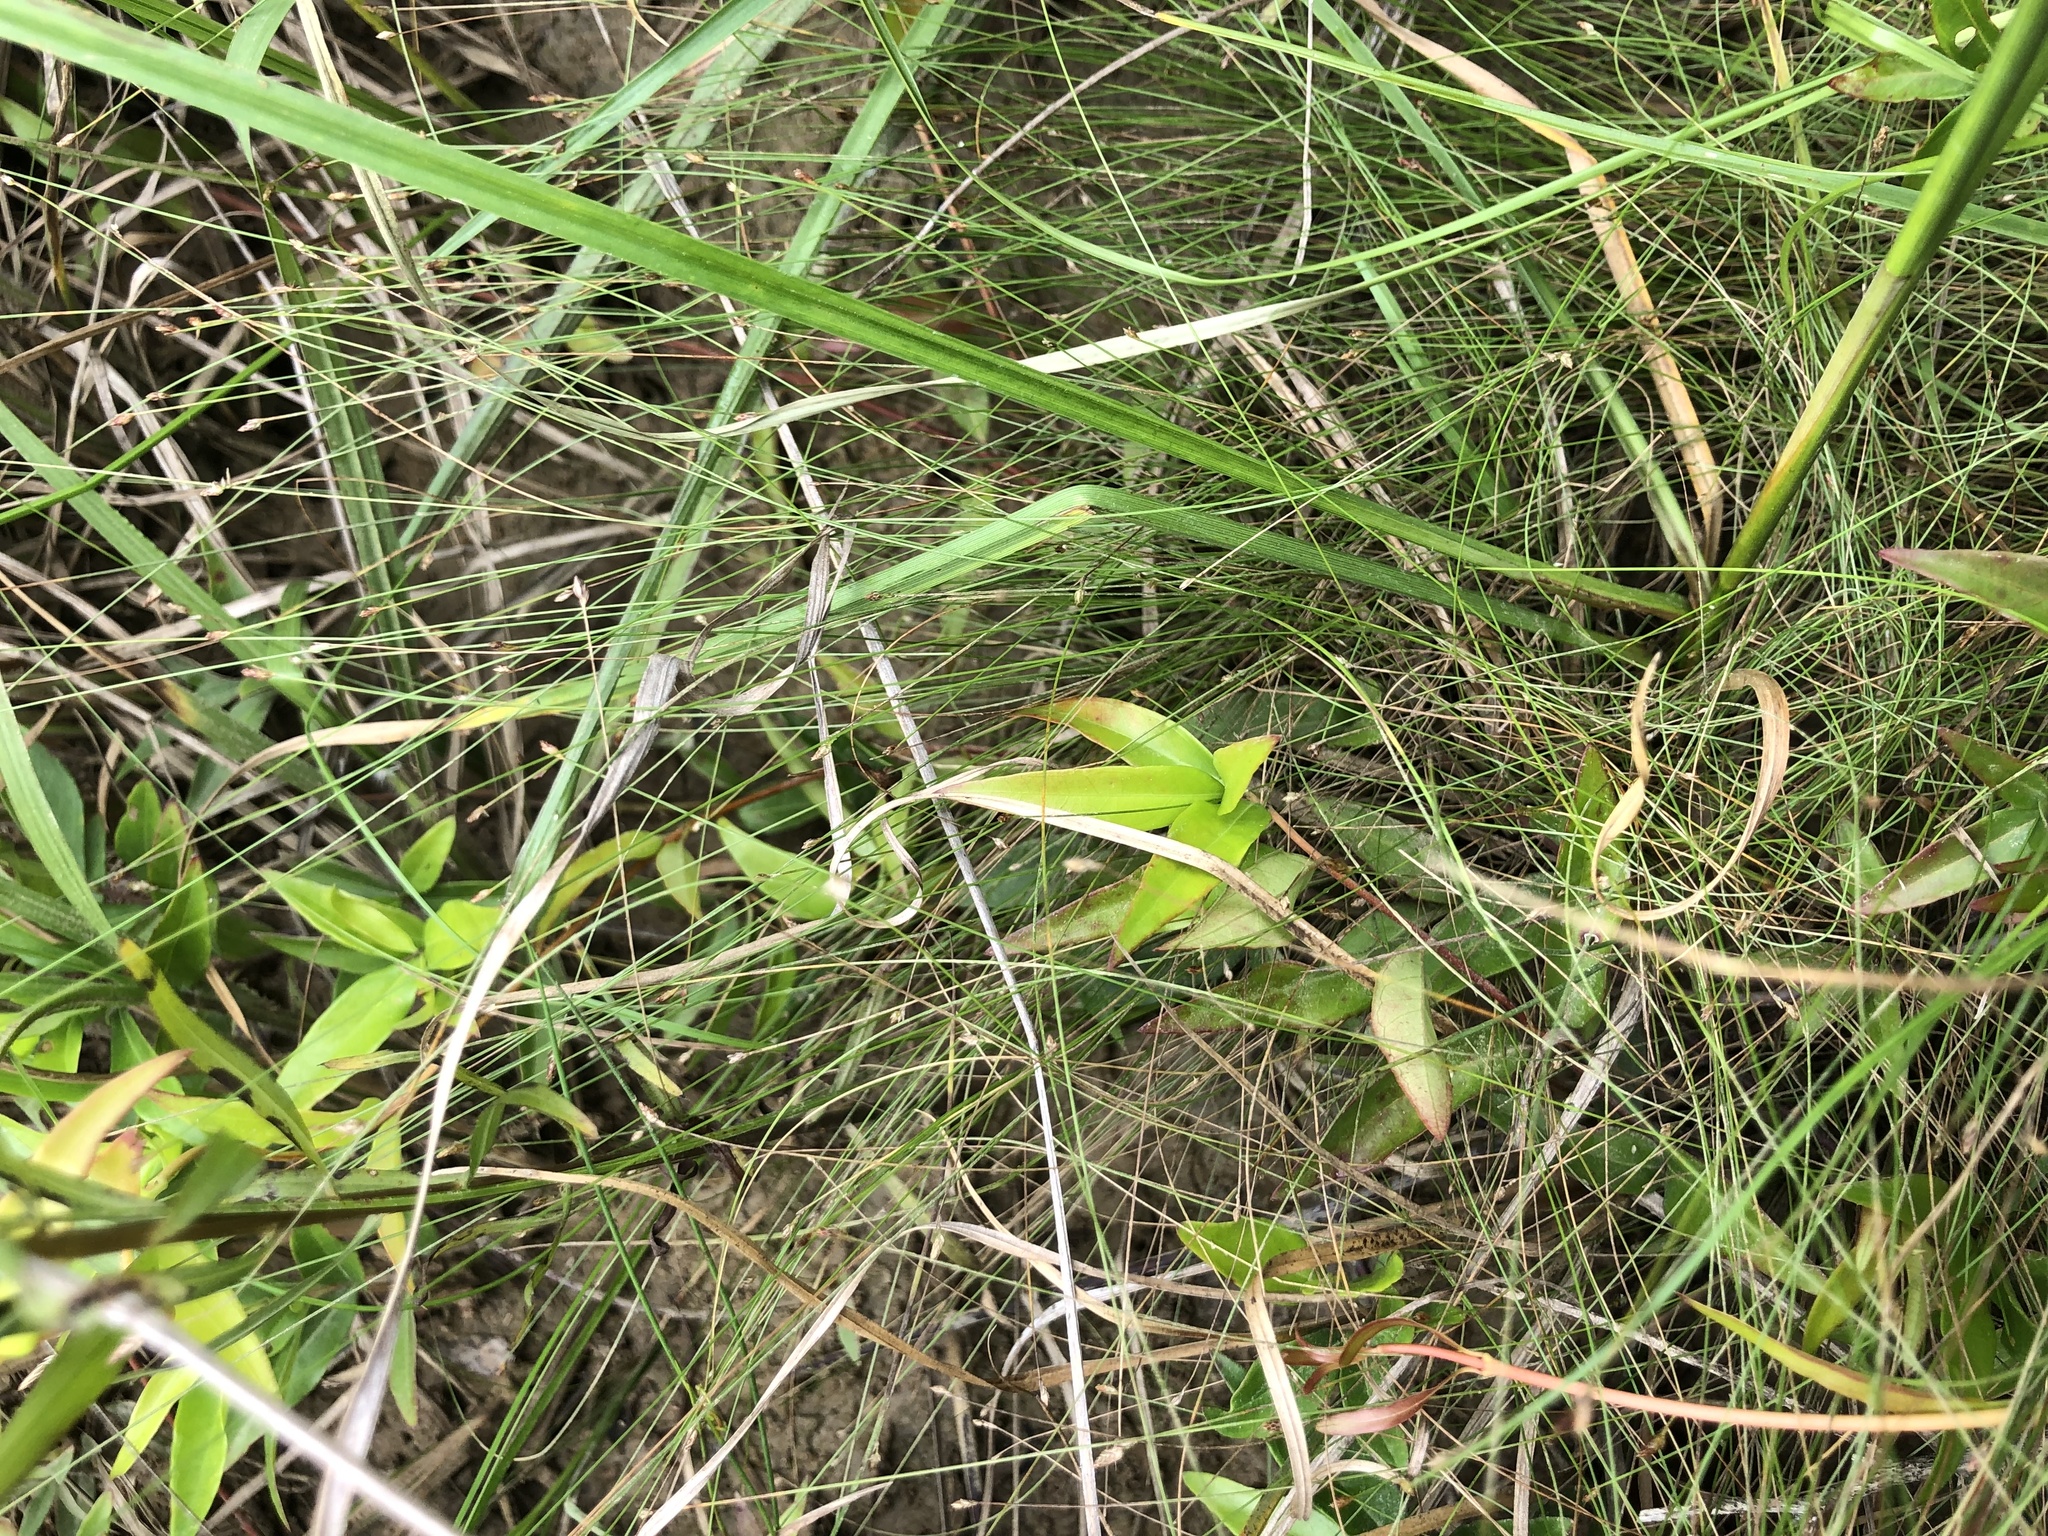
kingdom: Plantae
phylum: Tracheophyta
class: Liliopsida
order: Poales
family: Cyperaceae
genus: Eleocharis
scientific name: Eleocharis brittonii
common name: Britton's spike-rush
